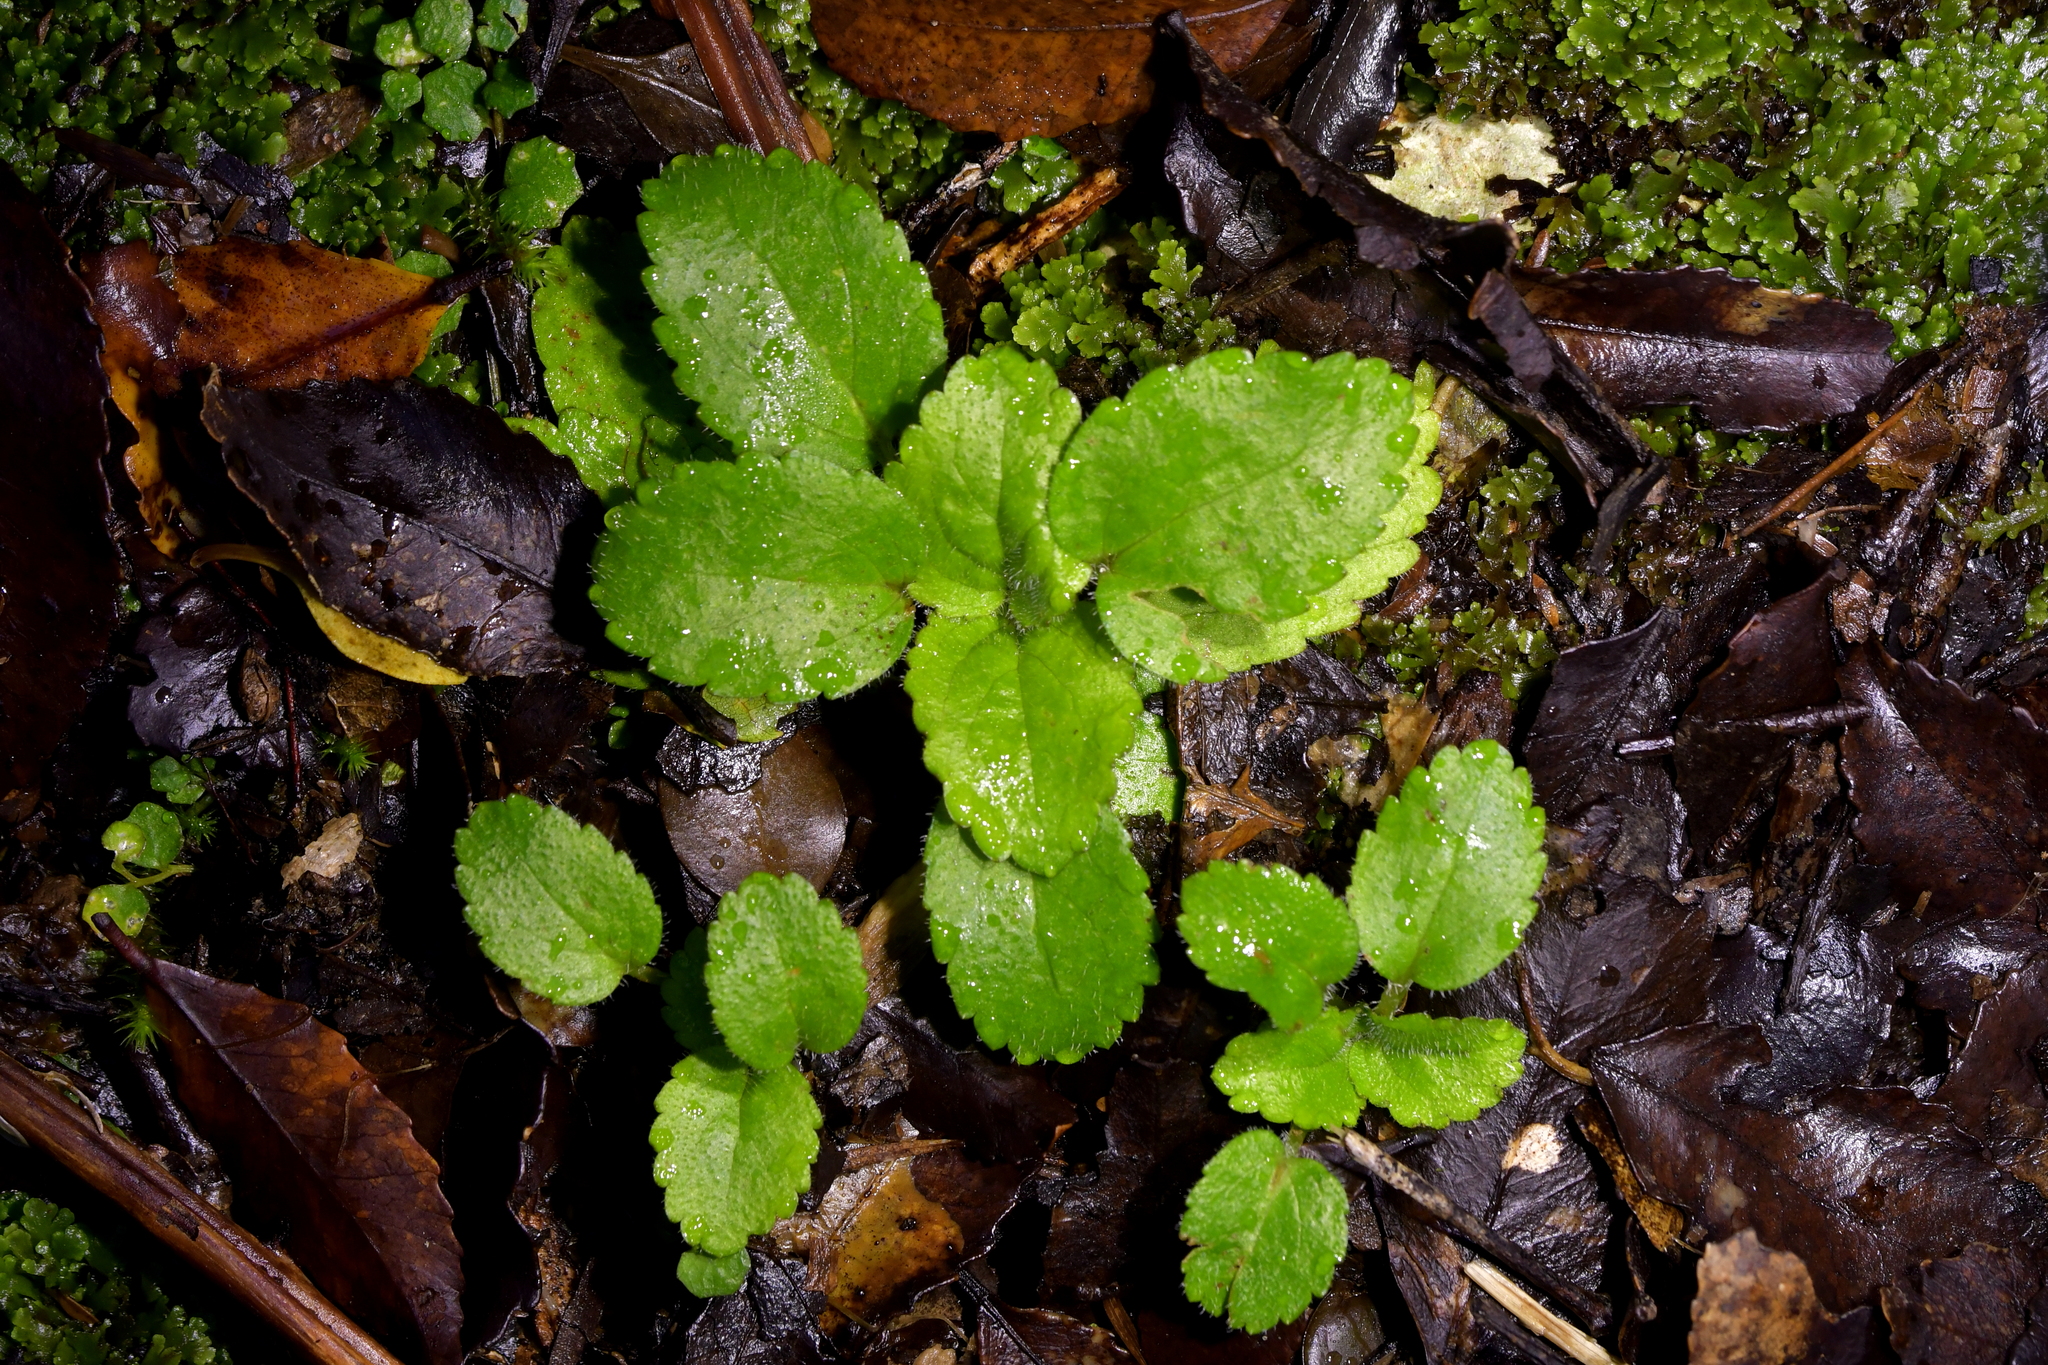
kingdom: Plantae
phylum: Tracheophyta
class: Magnoliopsida
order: Lamiales
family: Plantaginaceae
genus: Ourisia
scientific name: Ourisia macrophylla
